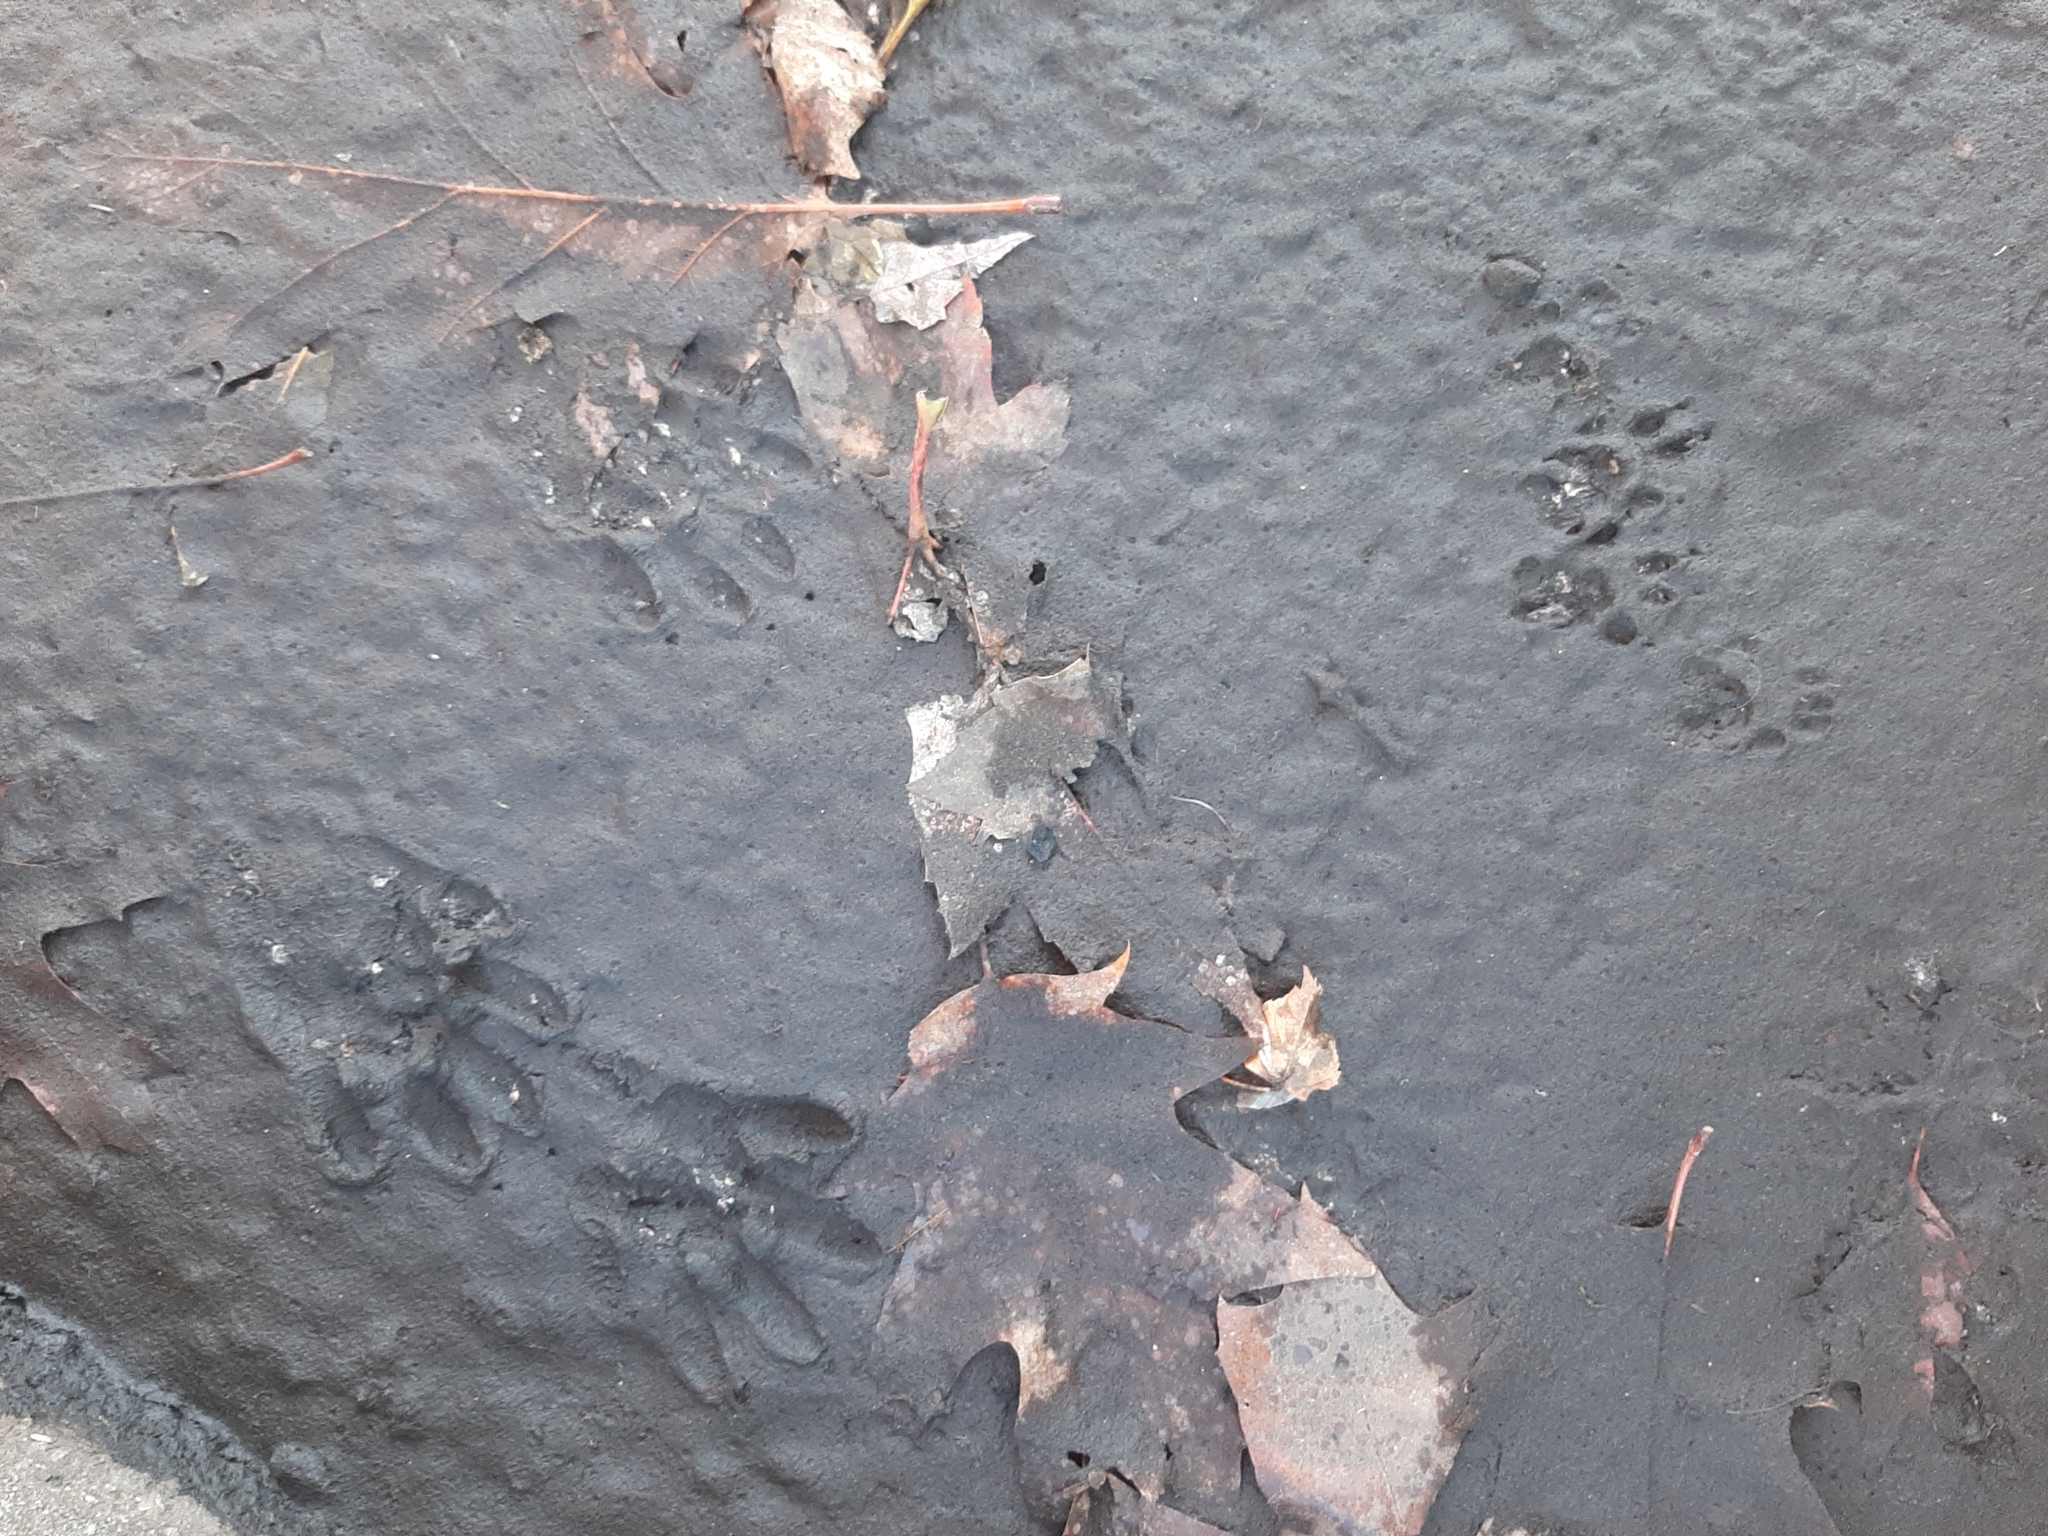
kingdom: Animalia
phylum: Chordata
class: Mammalia
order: Carnivora
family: Procyonidae
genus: Procyon
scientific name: Procyon lotor
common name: Raccoon
